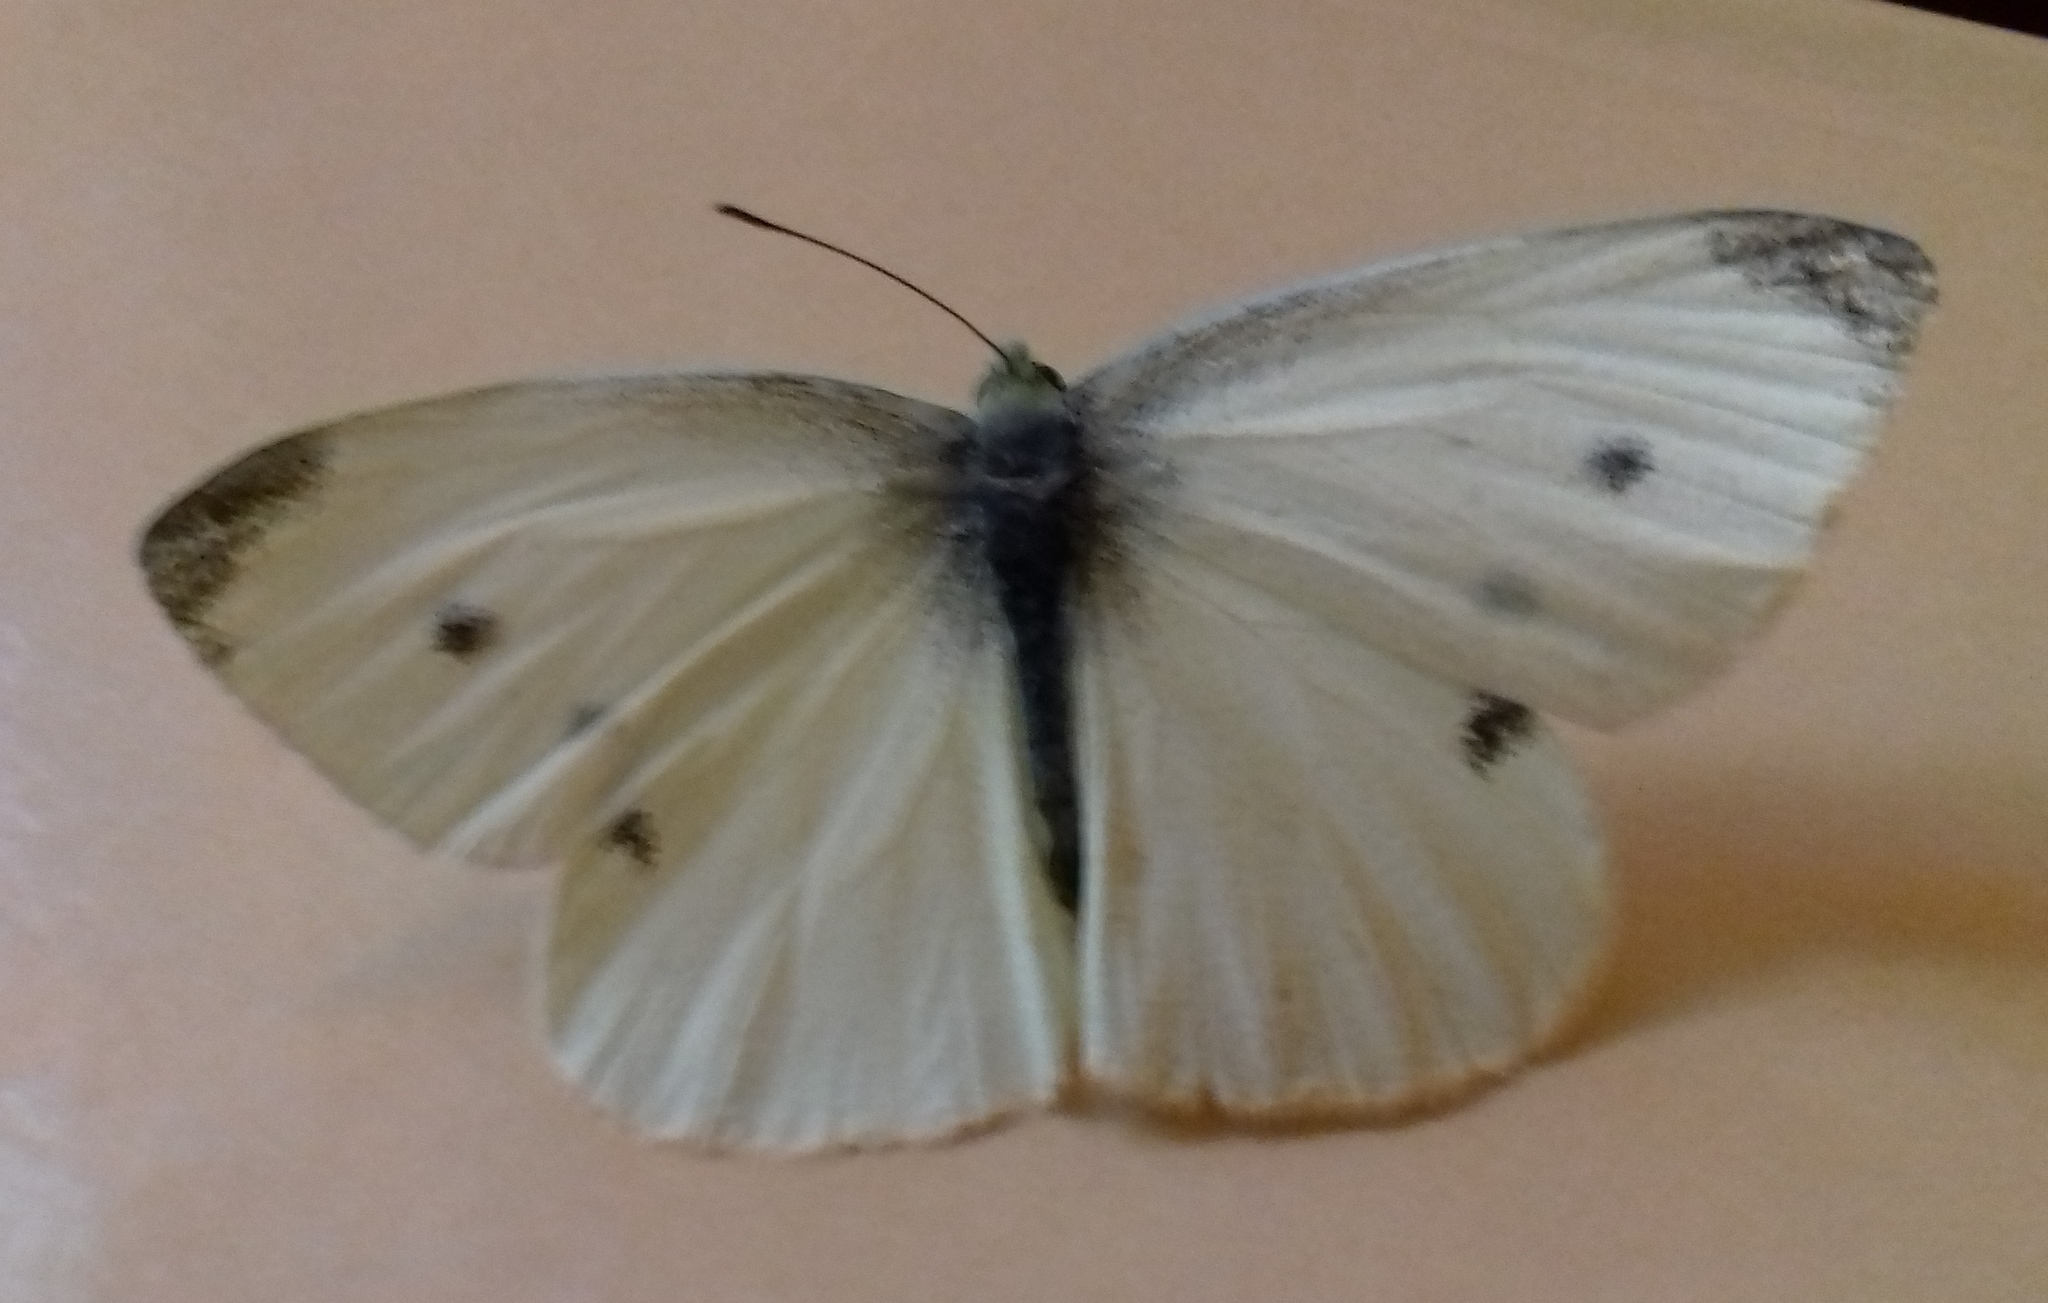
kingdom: Animalia
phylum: Arthropoda
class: Insecta
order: Lepidoptera
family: Pieridae
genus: Pieris
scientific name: Pieris rapae
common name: Small white
